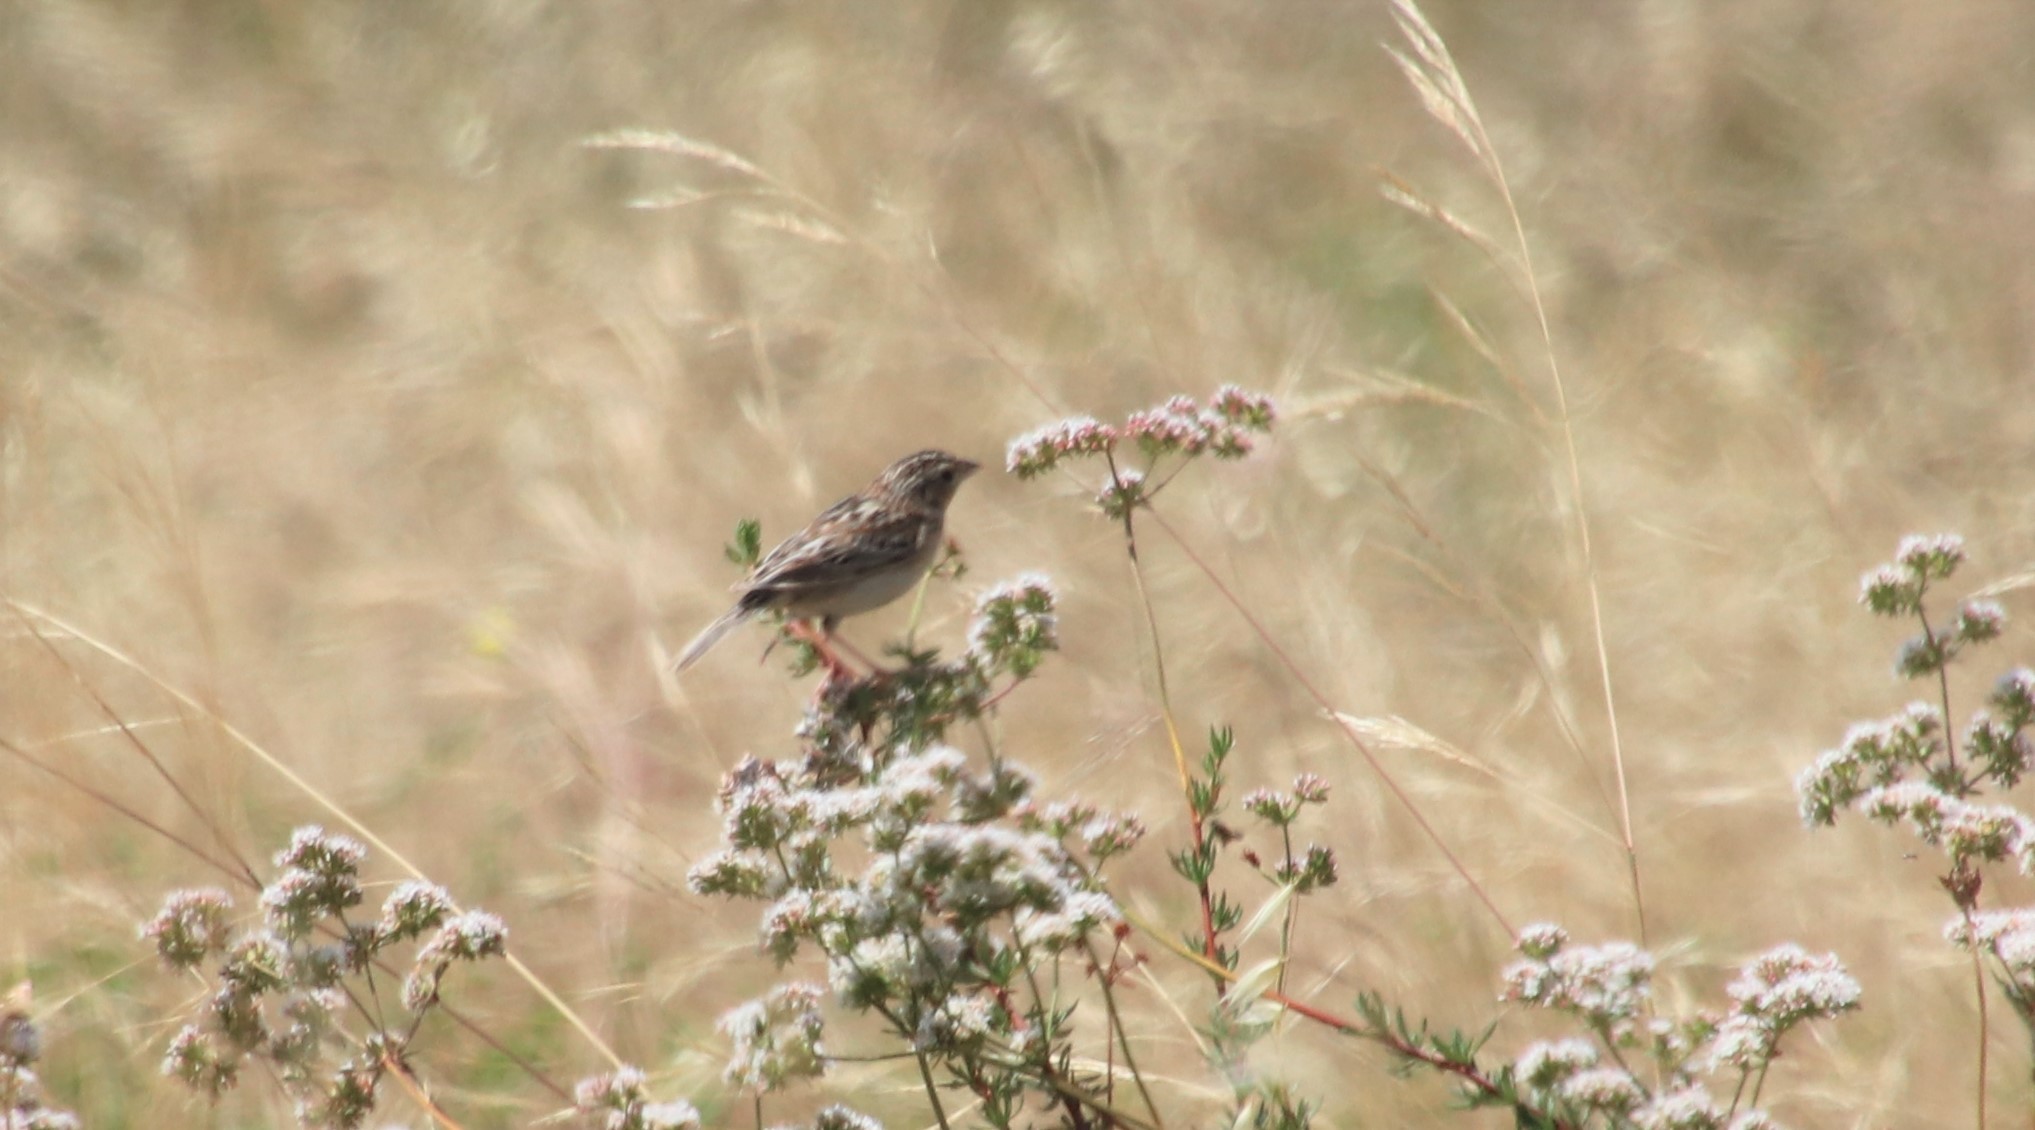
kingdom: Animalia
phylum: Chordata
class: Aves
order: Passeriformes
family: Passerellidae
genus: Ammodramus
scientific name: Ammodramus savannarum
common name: Grasshopper sparrow
